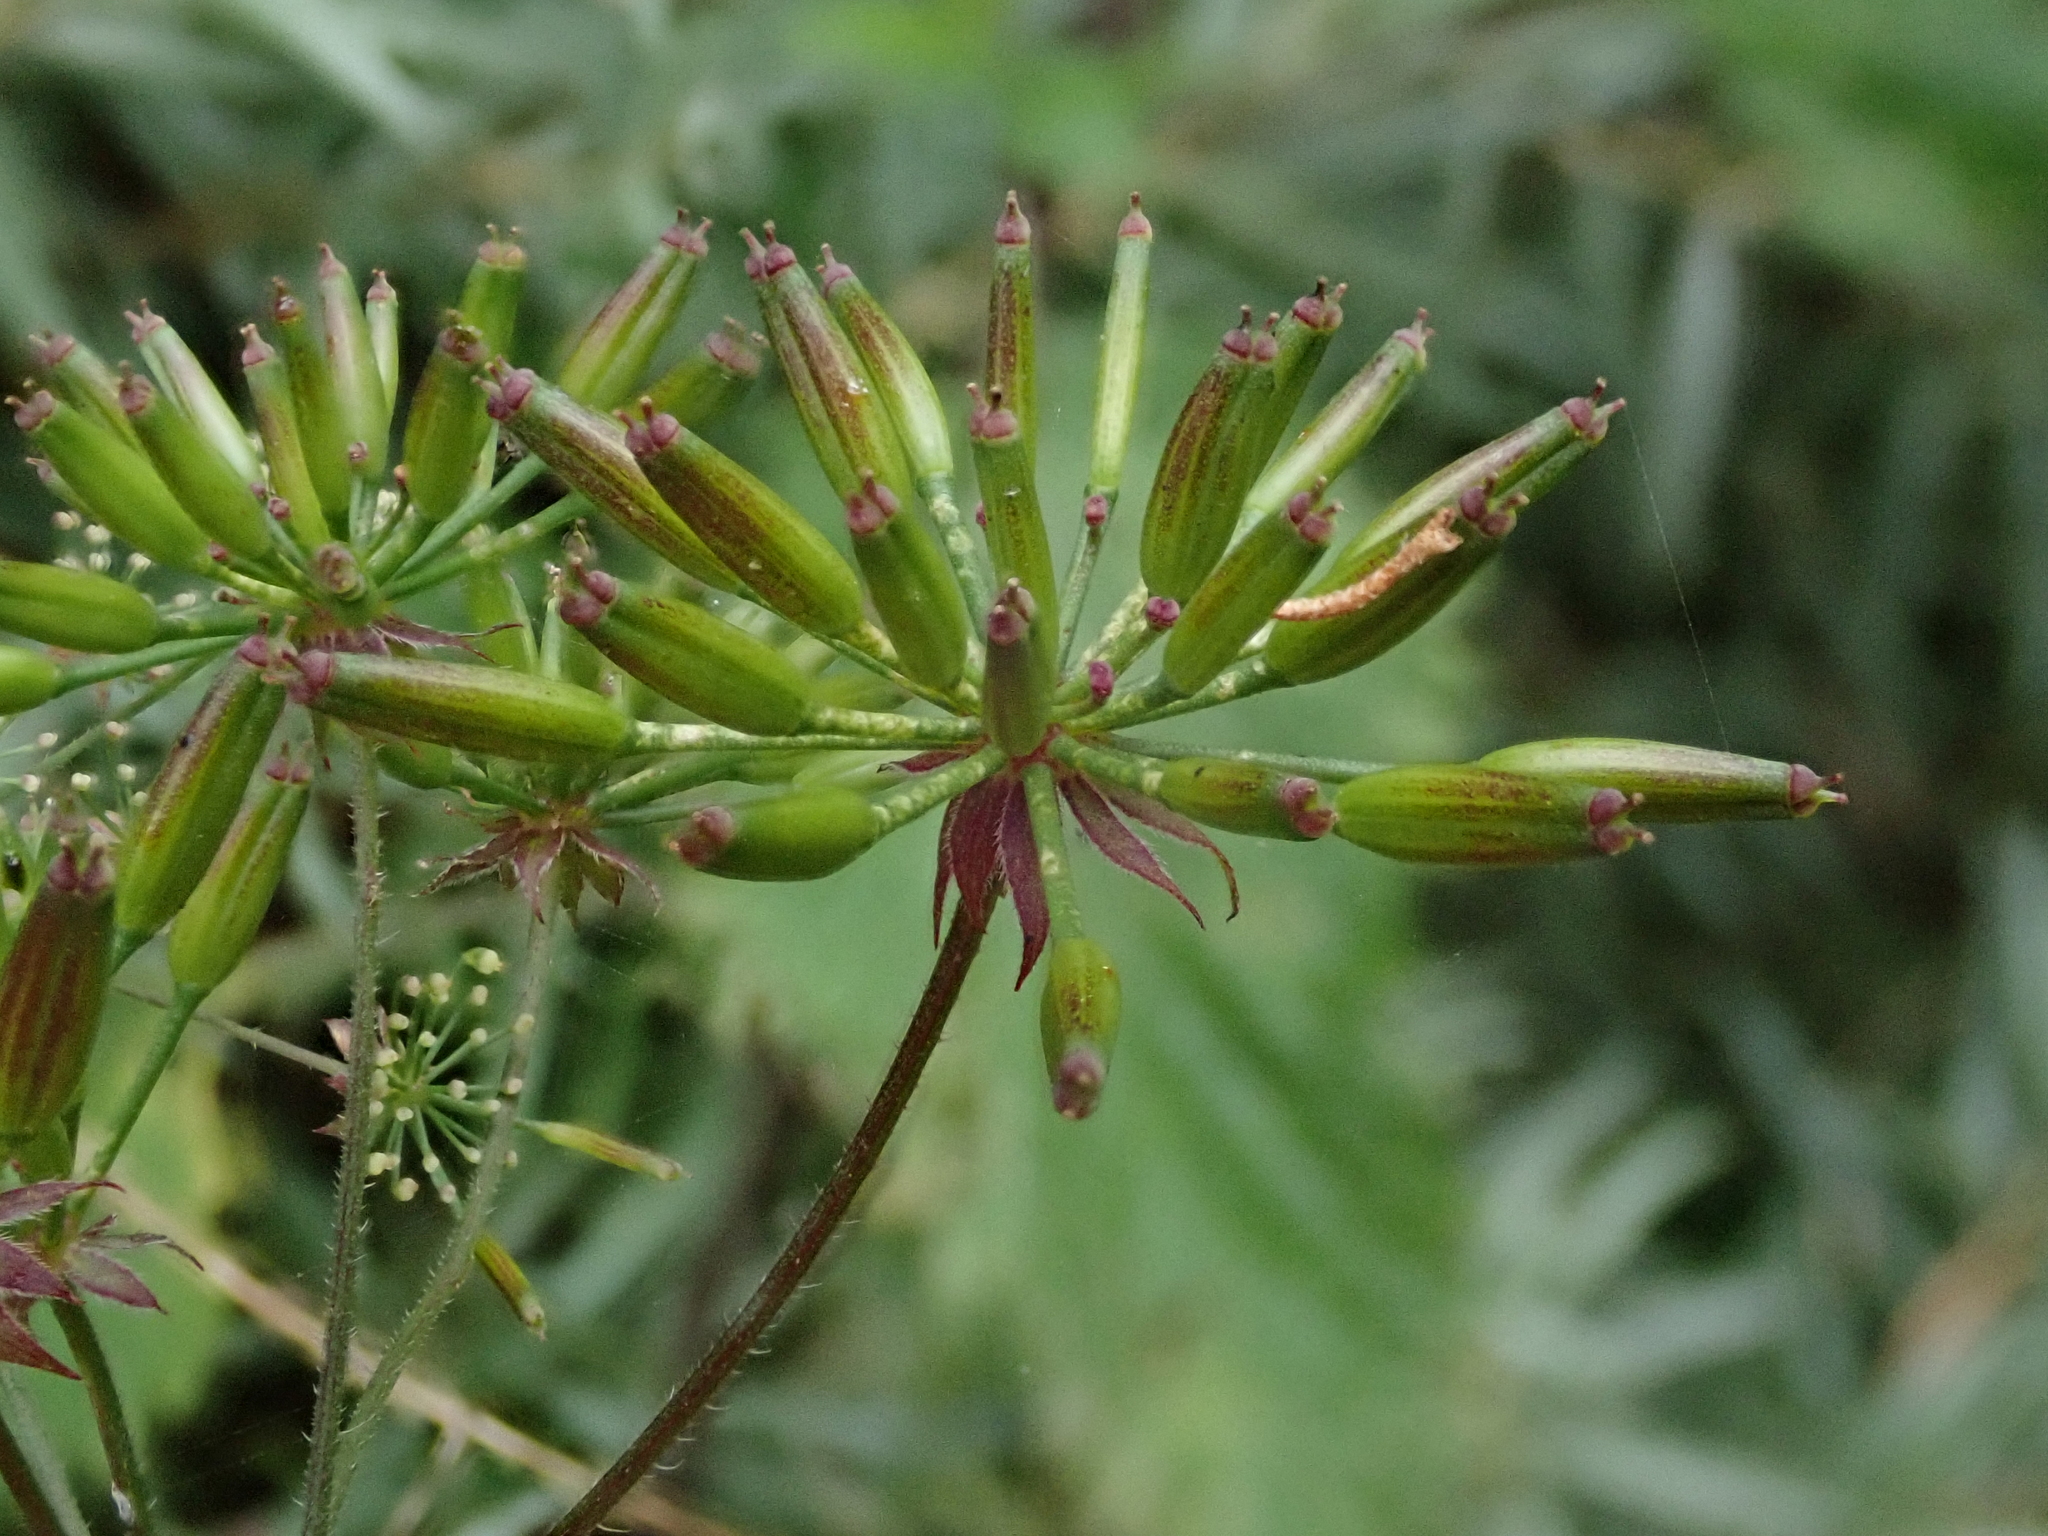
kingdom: Plantae
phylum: Tracheophyta
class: Magnoliopsida
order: Apiales
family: Apiaceae
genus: Chaerophyllum
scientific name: Chaerophyllum temulum
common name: Rough chervil
